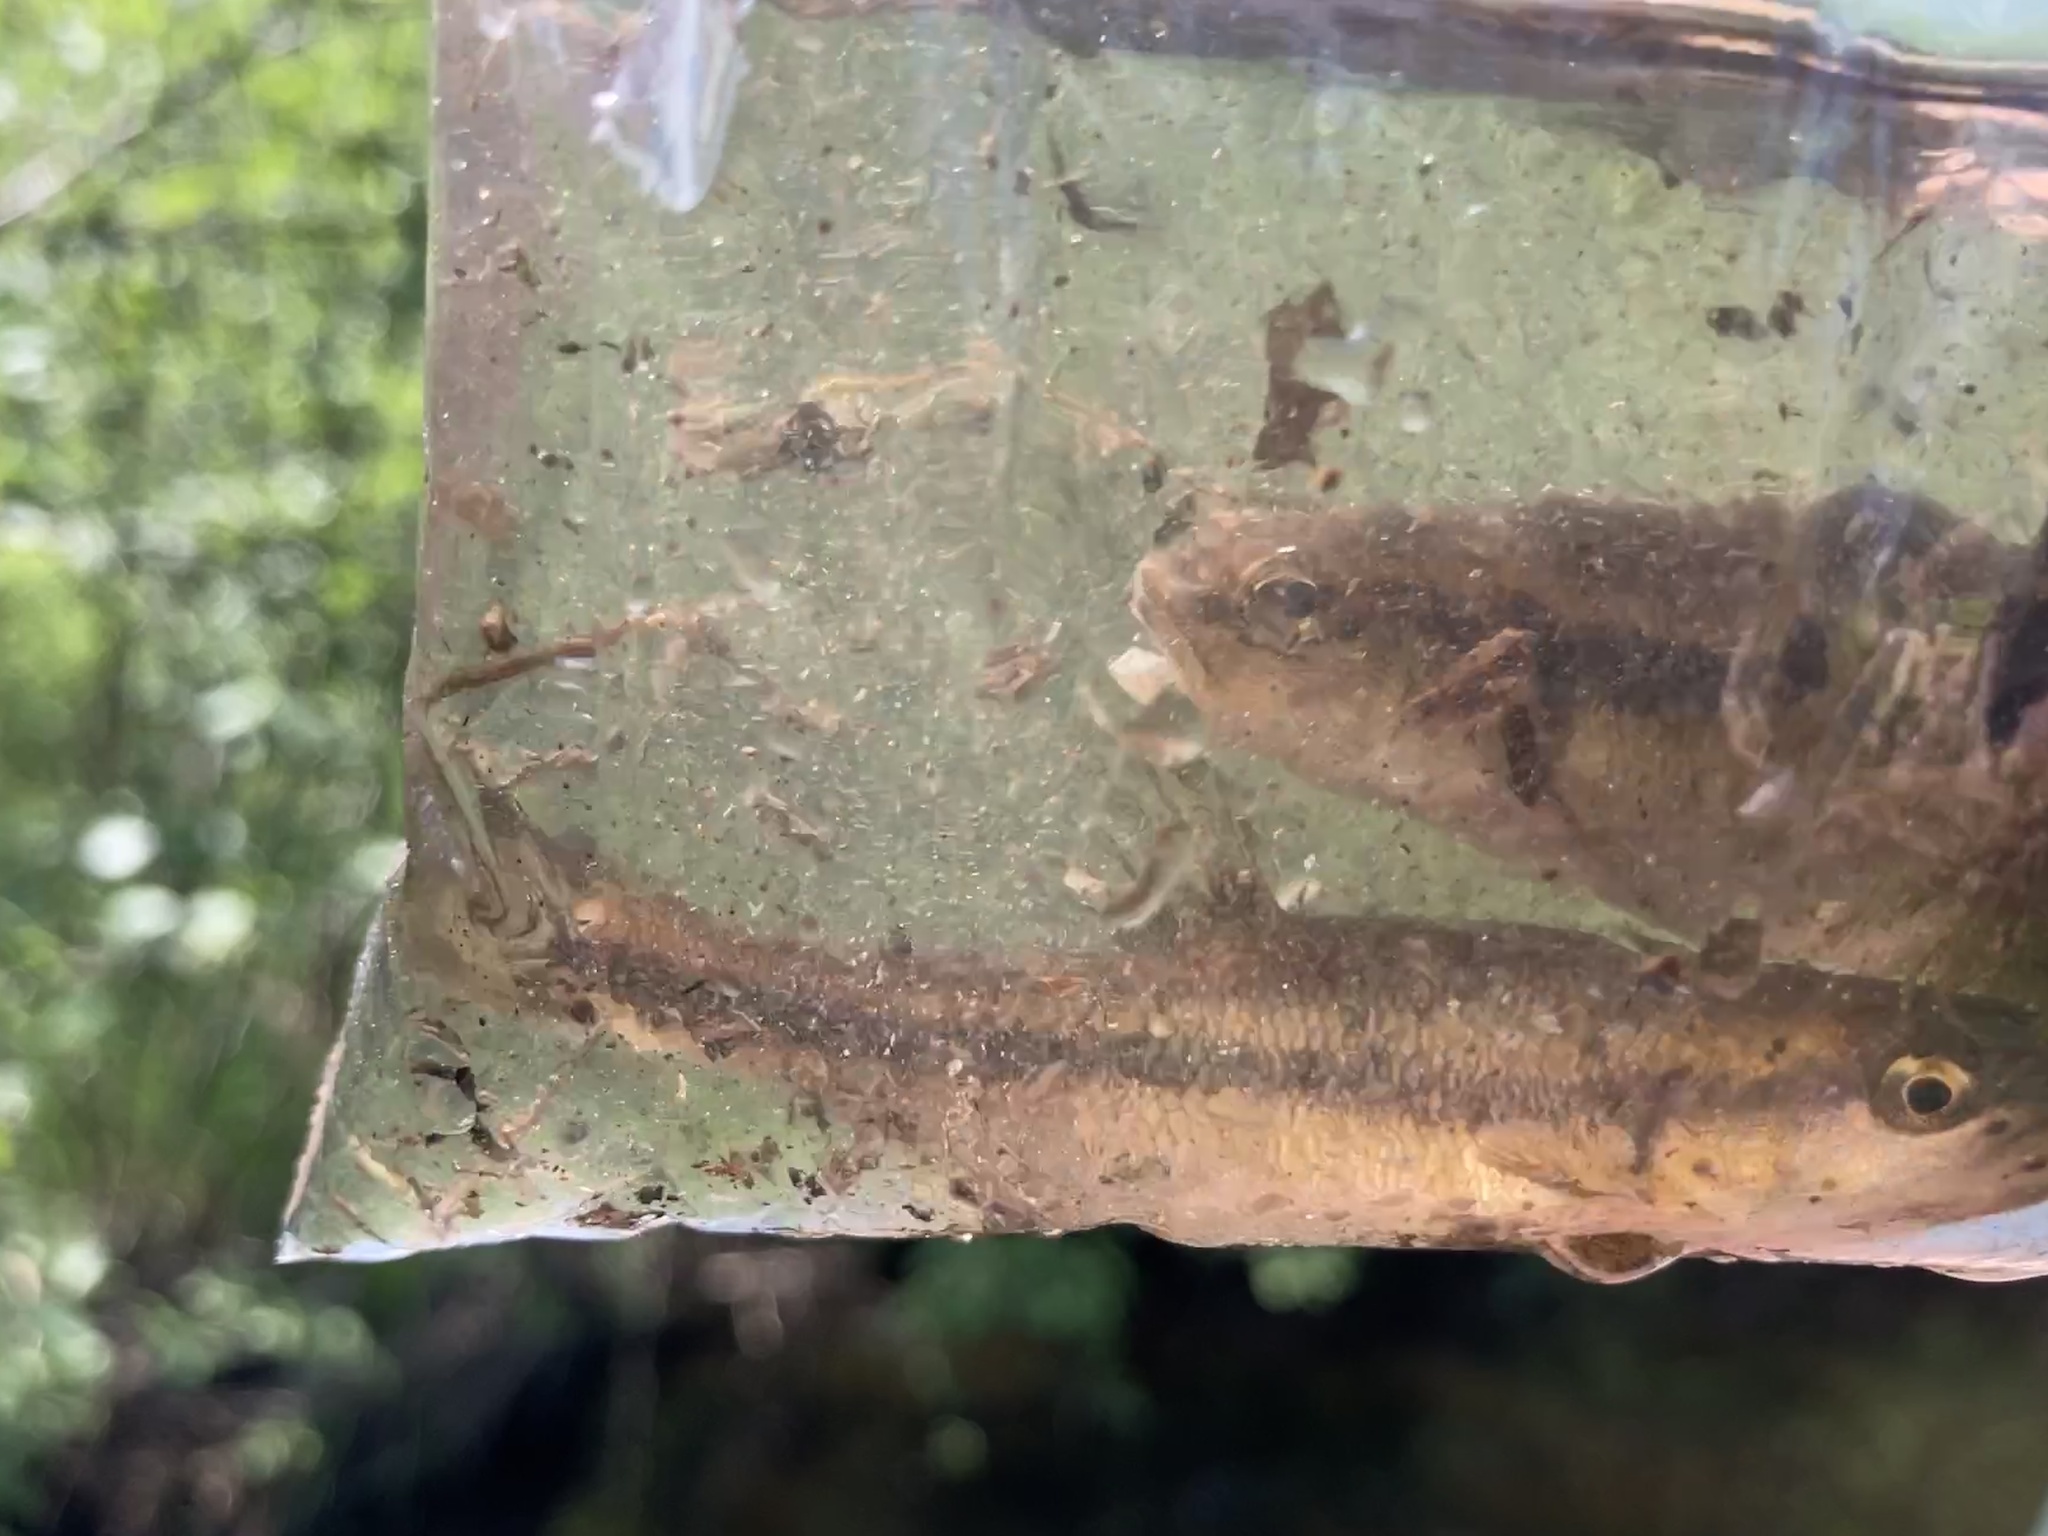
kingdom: Animalia
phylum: Chordata
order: Cypriniformes
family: Cyprinidae
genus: Semotilus
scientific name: Semotilus atromaculatus
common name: Creek chub
